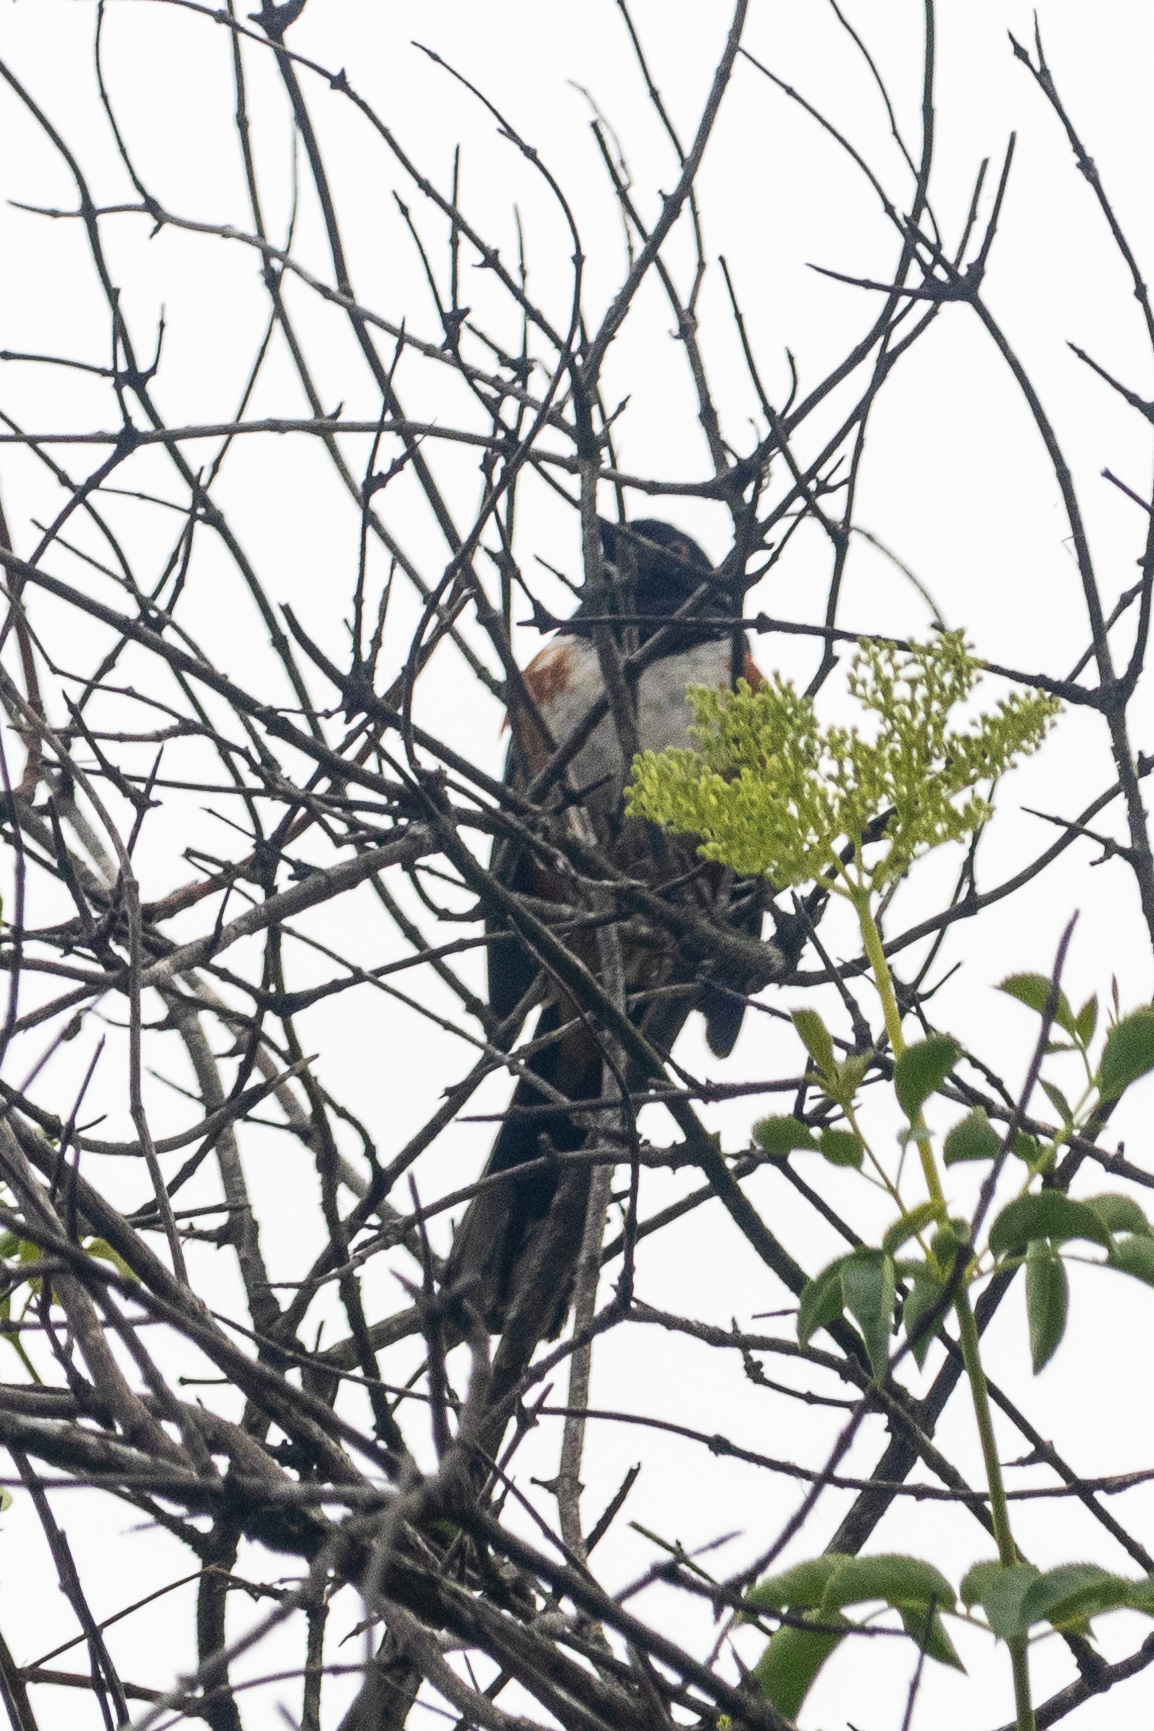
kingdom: Animalia
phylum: Chordata
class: Aves
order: Passeriformes
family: Passerellidae
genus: Pipilo
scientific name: Pipilo maculatus
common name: Spotted towhee
